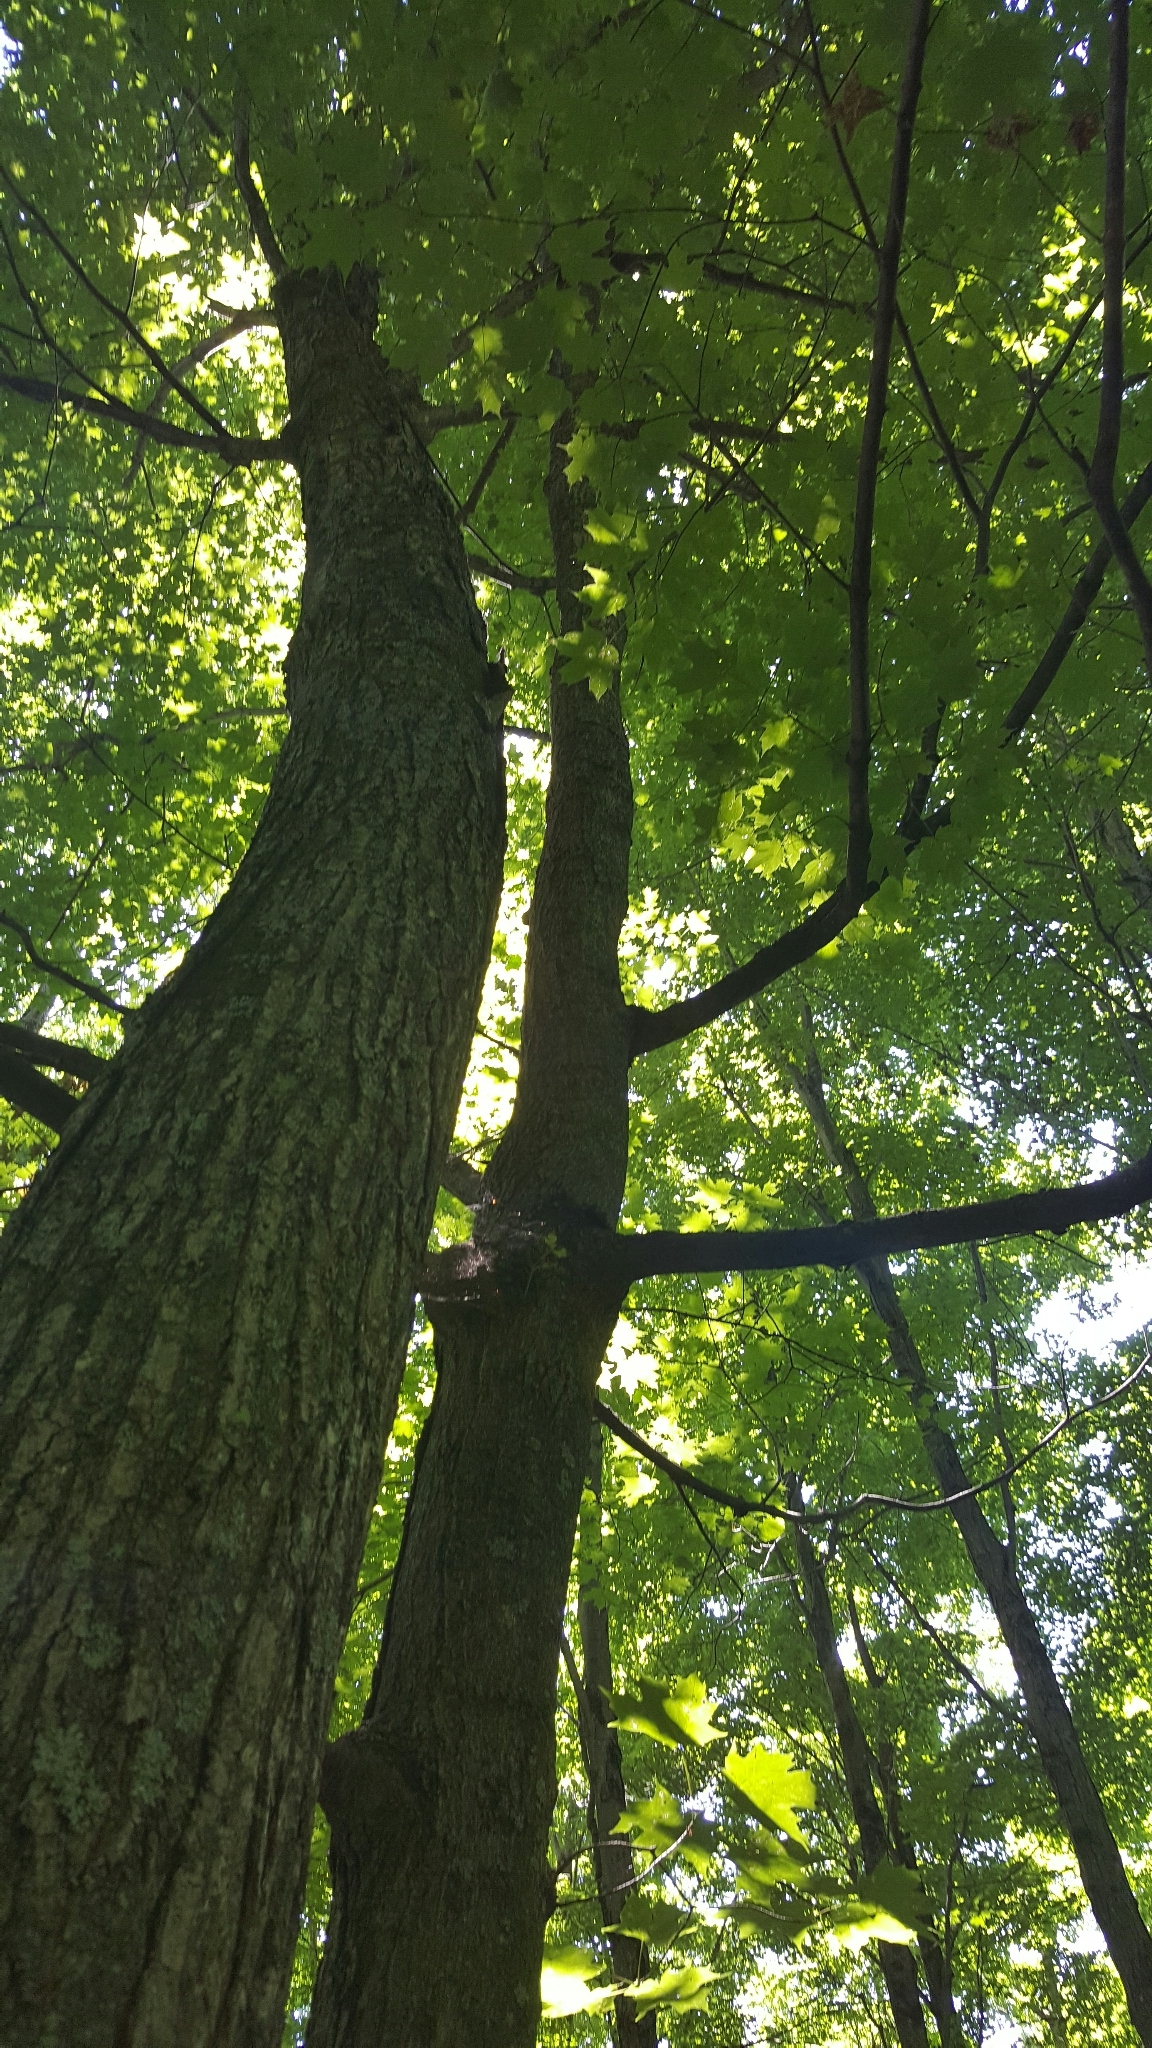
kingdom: Plantae
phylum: Tracheophyta
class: Magnoliopsida
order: Sapindales
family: Sapindaceae
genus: Acer
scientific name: Acer saccharum
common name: Sugar maple
